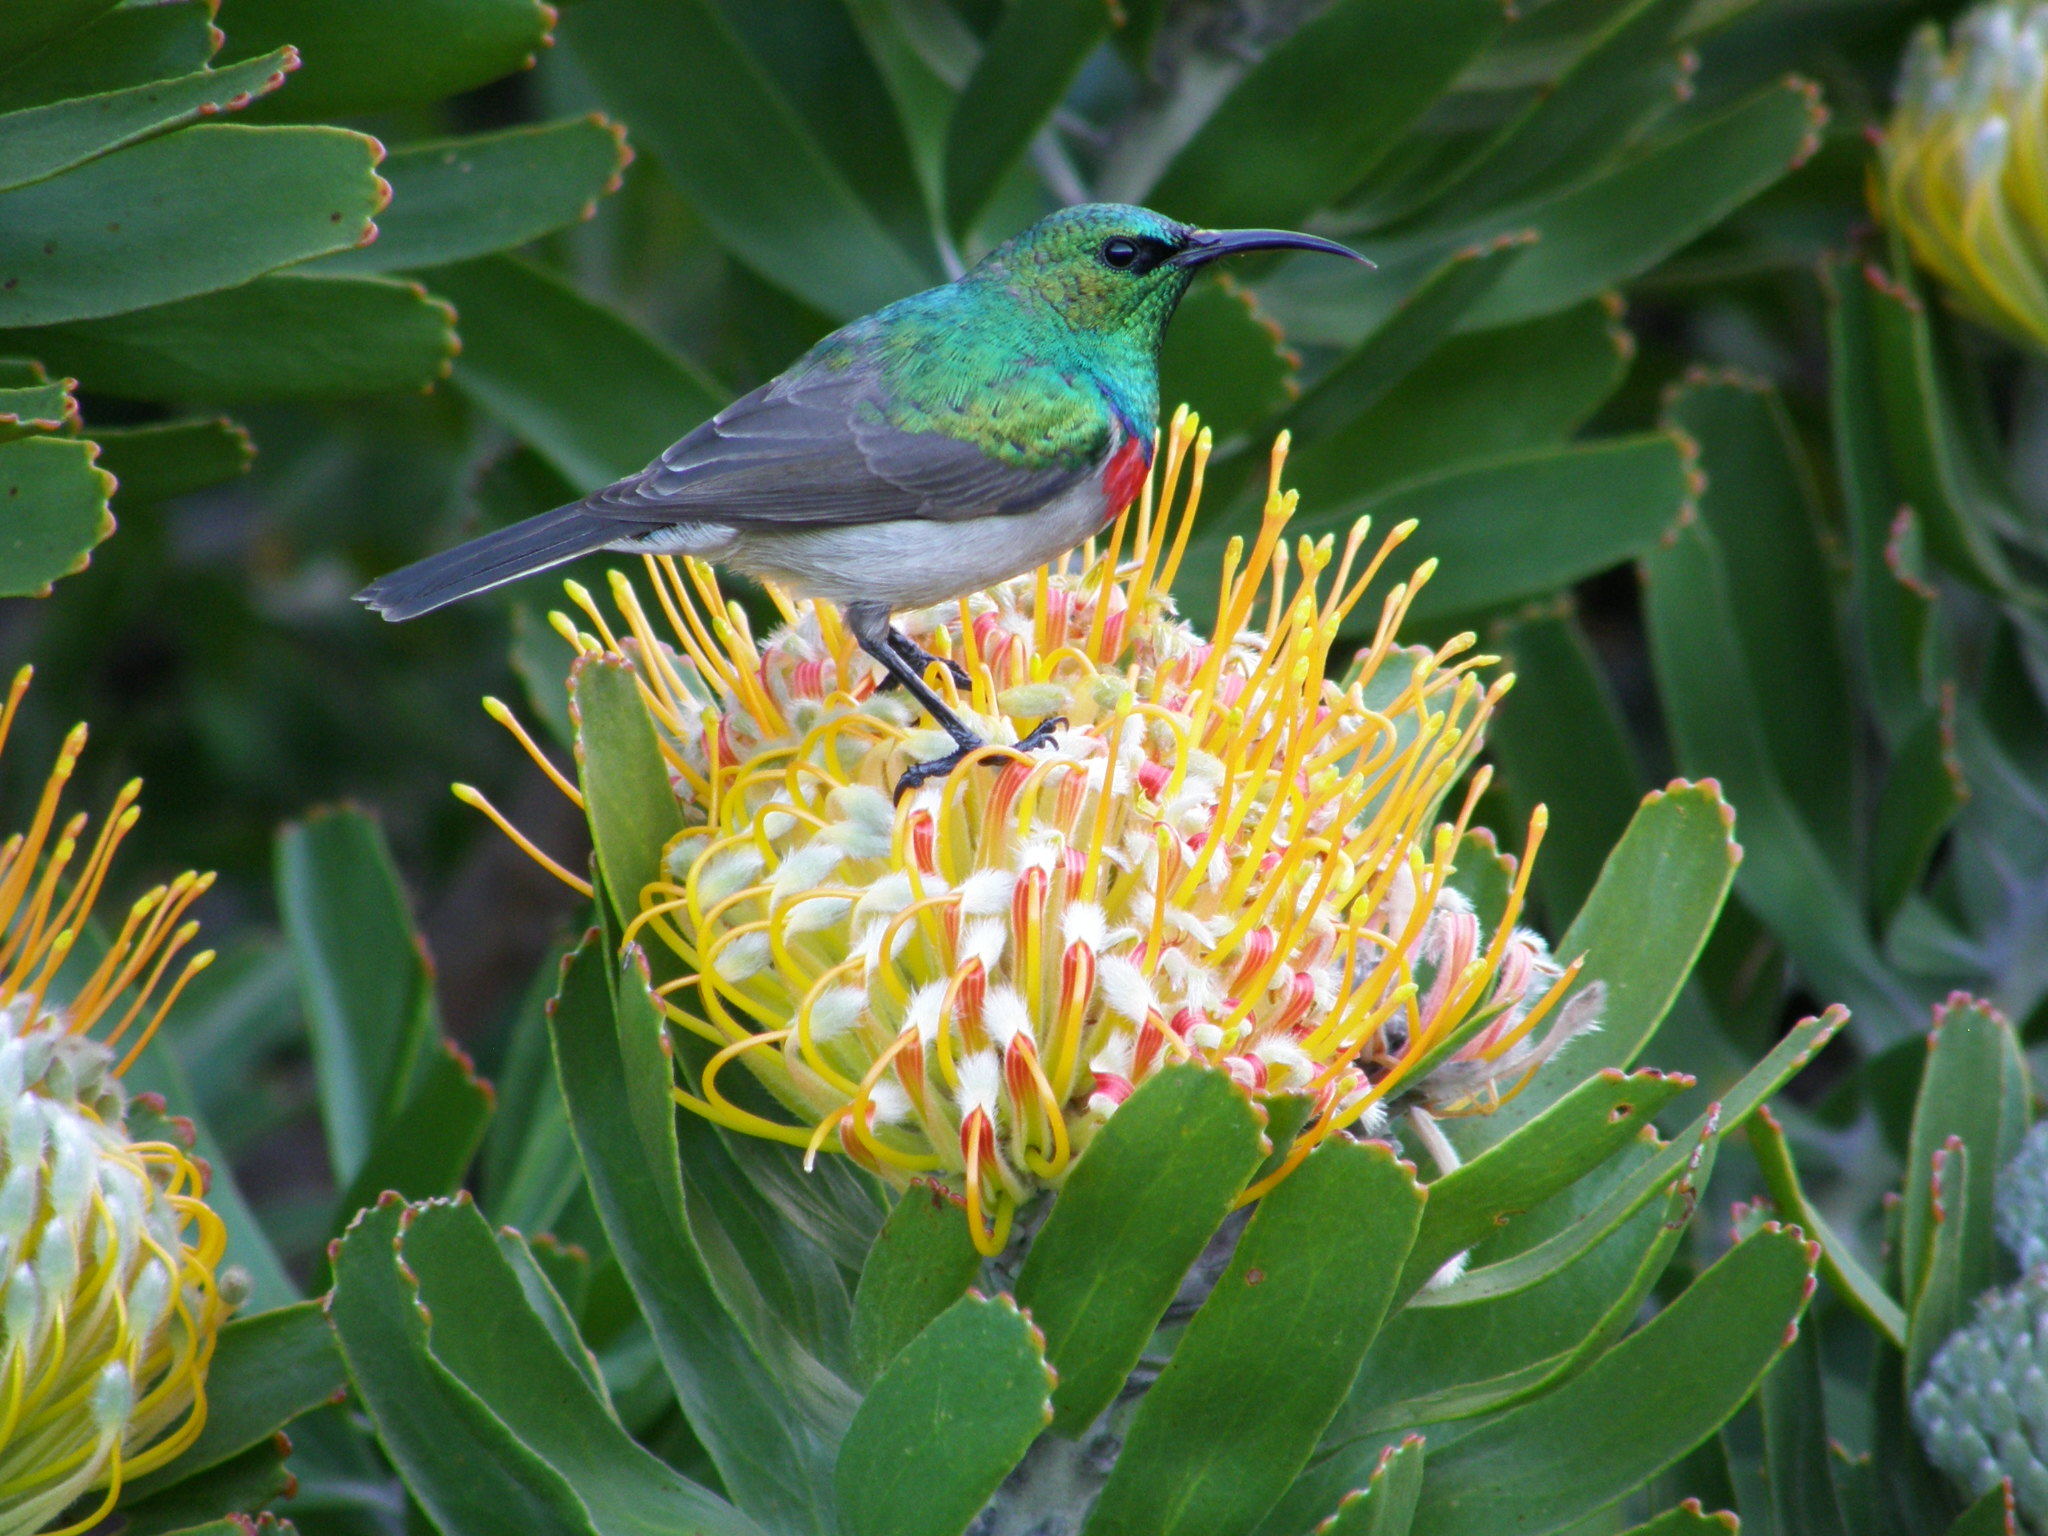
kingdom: Animalia
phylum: Chordata
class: Aves
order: Passeriformes
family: Nectariniidae
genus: Cinnyris
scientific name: Cinnyris chalybeus
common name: Southern double-collared sunbird
